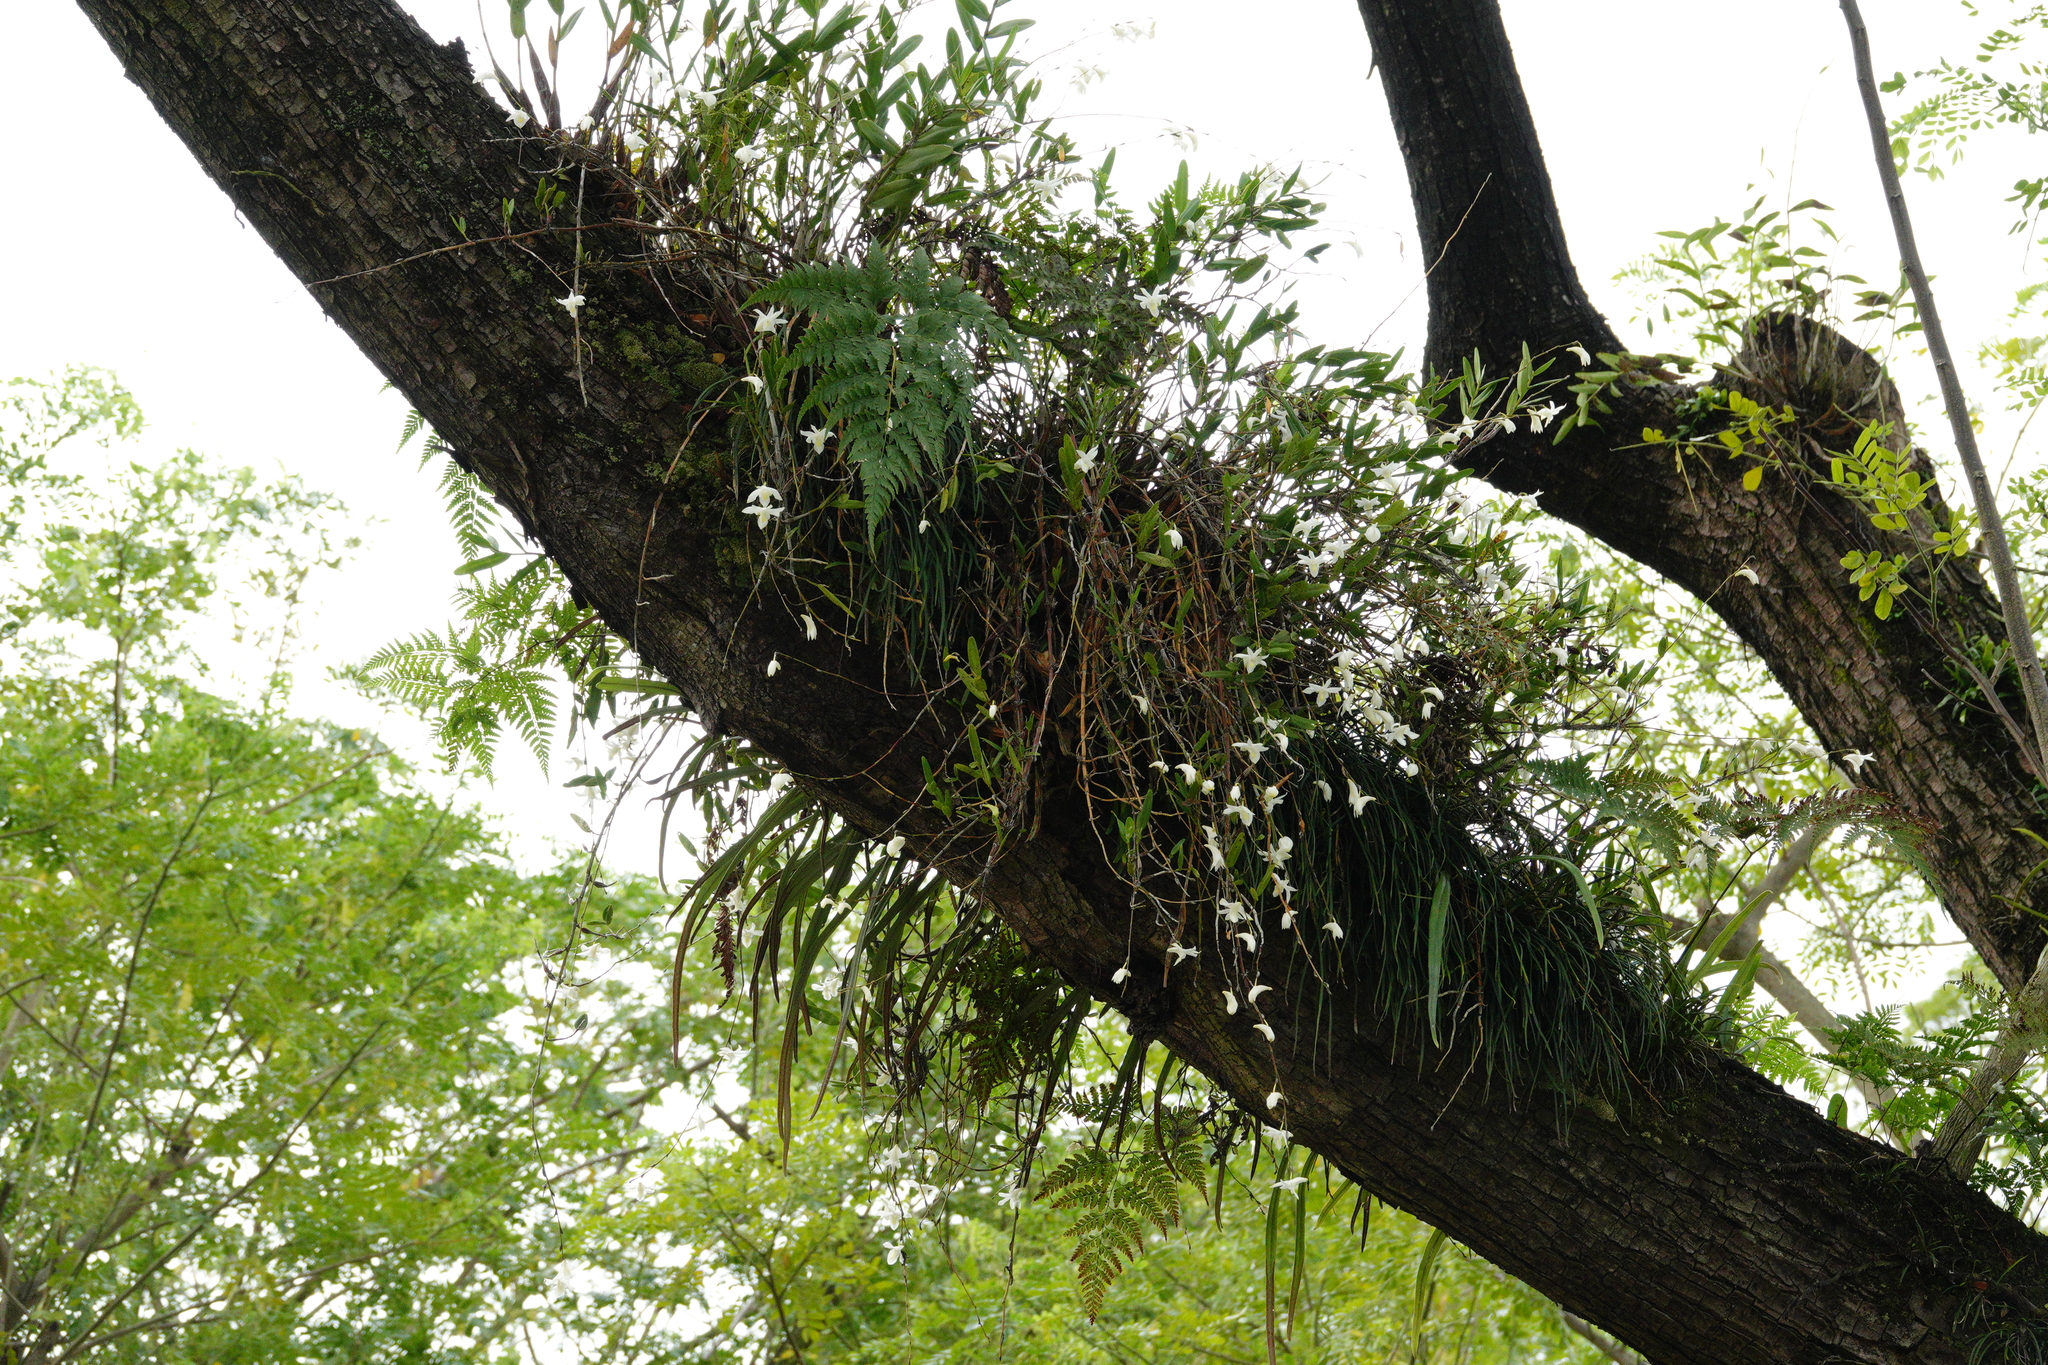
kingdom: Plantae
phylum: Tracheophyta
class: Liliopsida
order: Asparagales
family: Orchidaceae
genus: Dendrobium
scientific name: Dendrobium crumenatum
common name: Orchid
